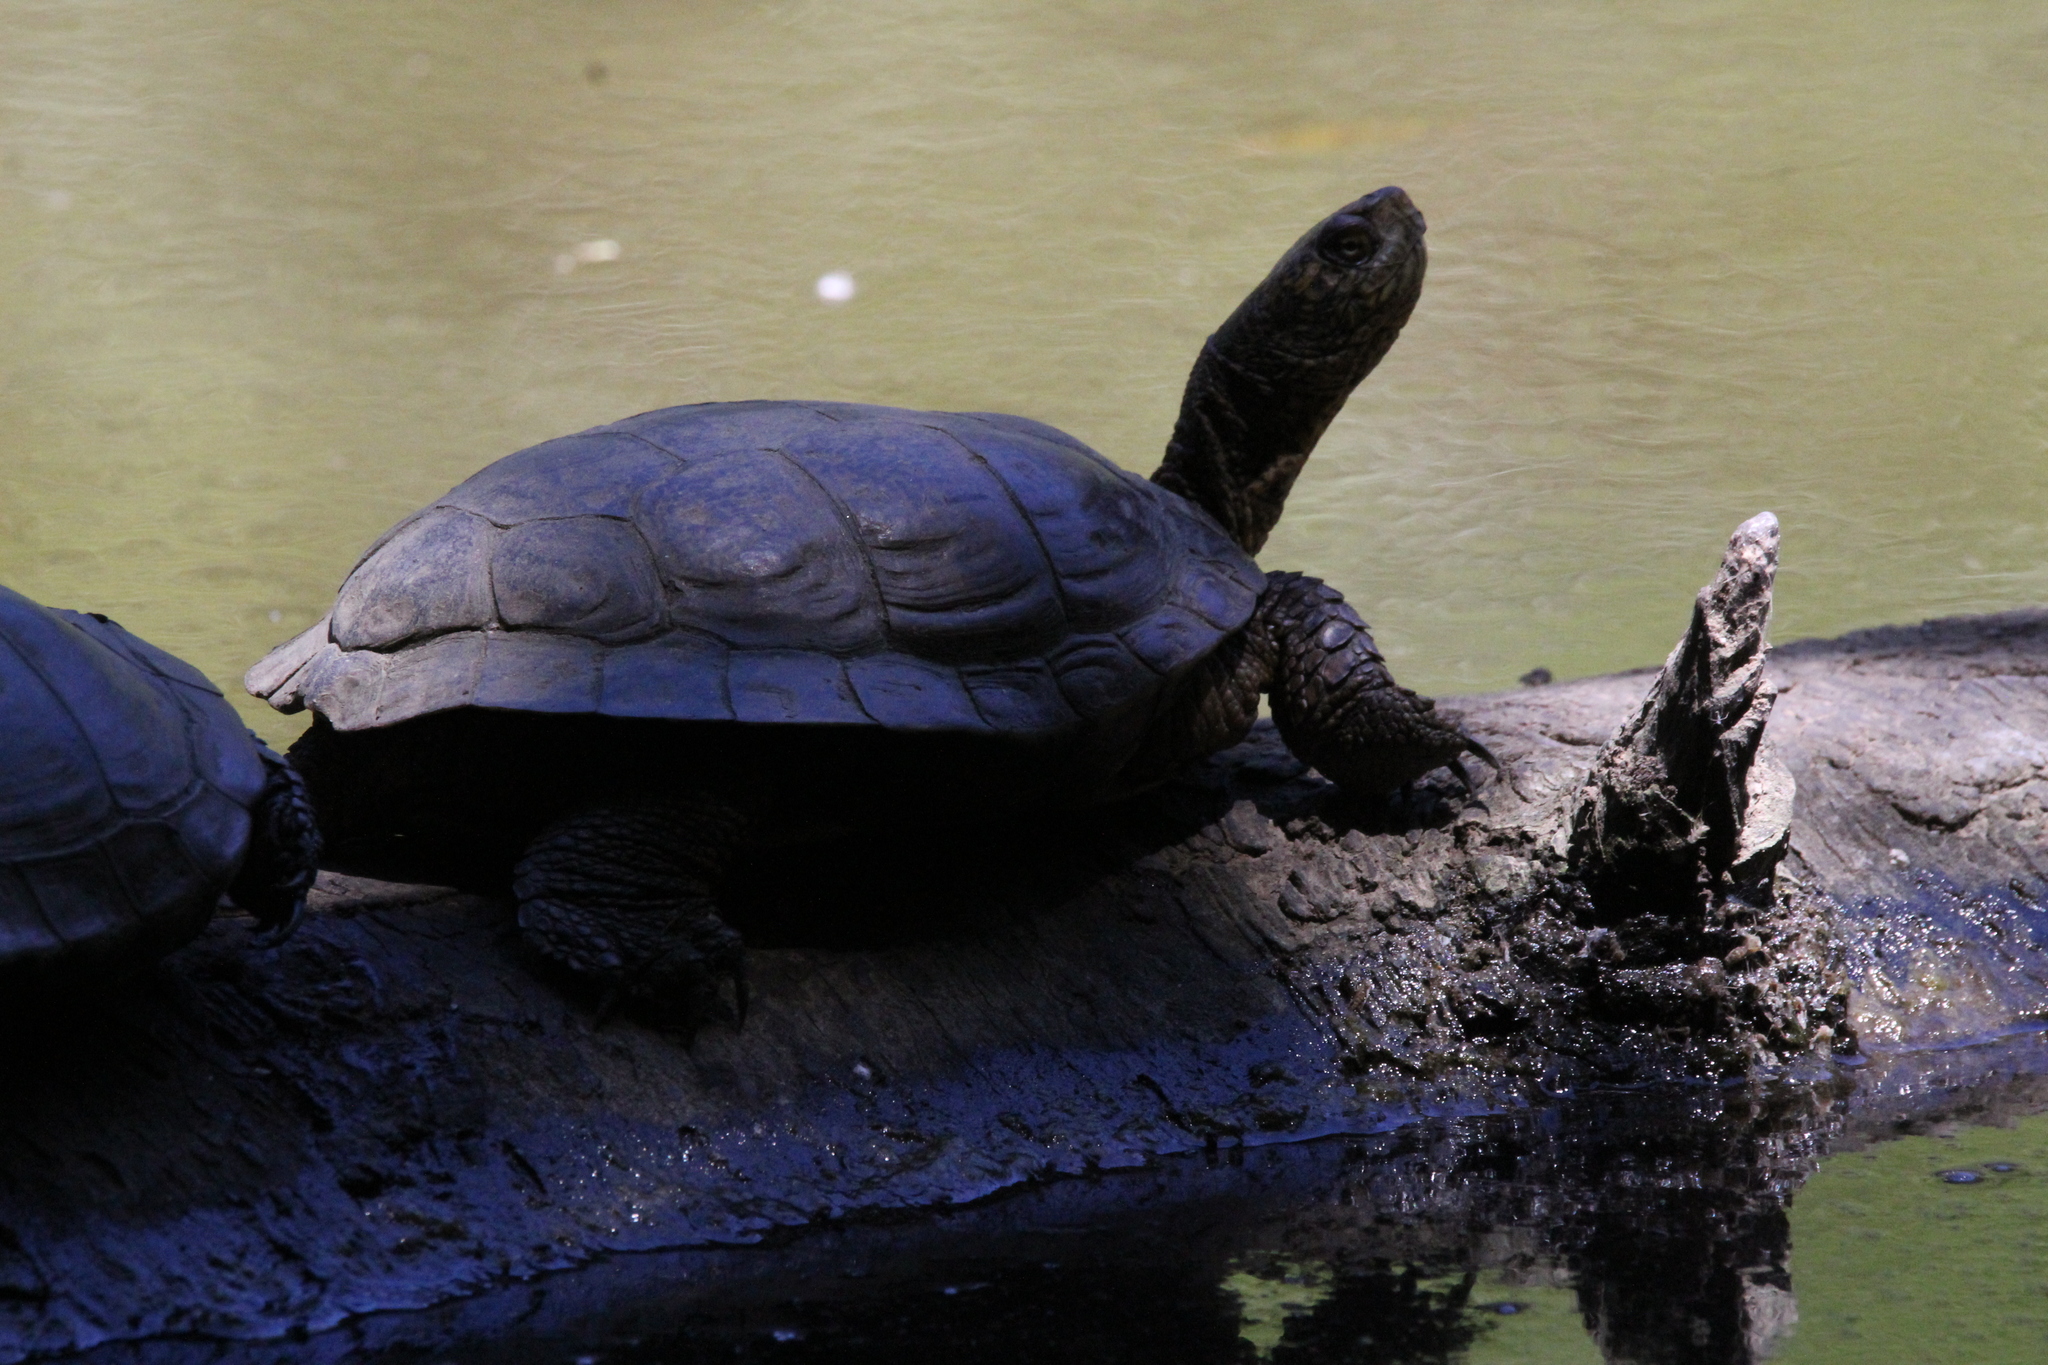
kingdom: Animalia
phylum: Chordata
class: Testudines
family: Emydidae
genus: Actinemys
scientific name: Actinemys marmorata
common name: Western pond turtle
